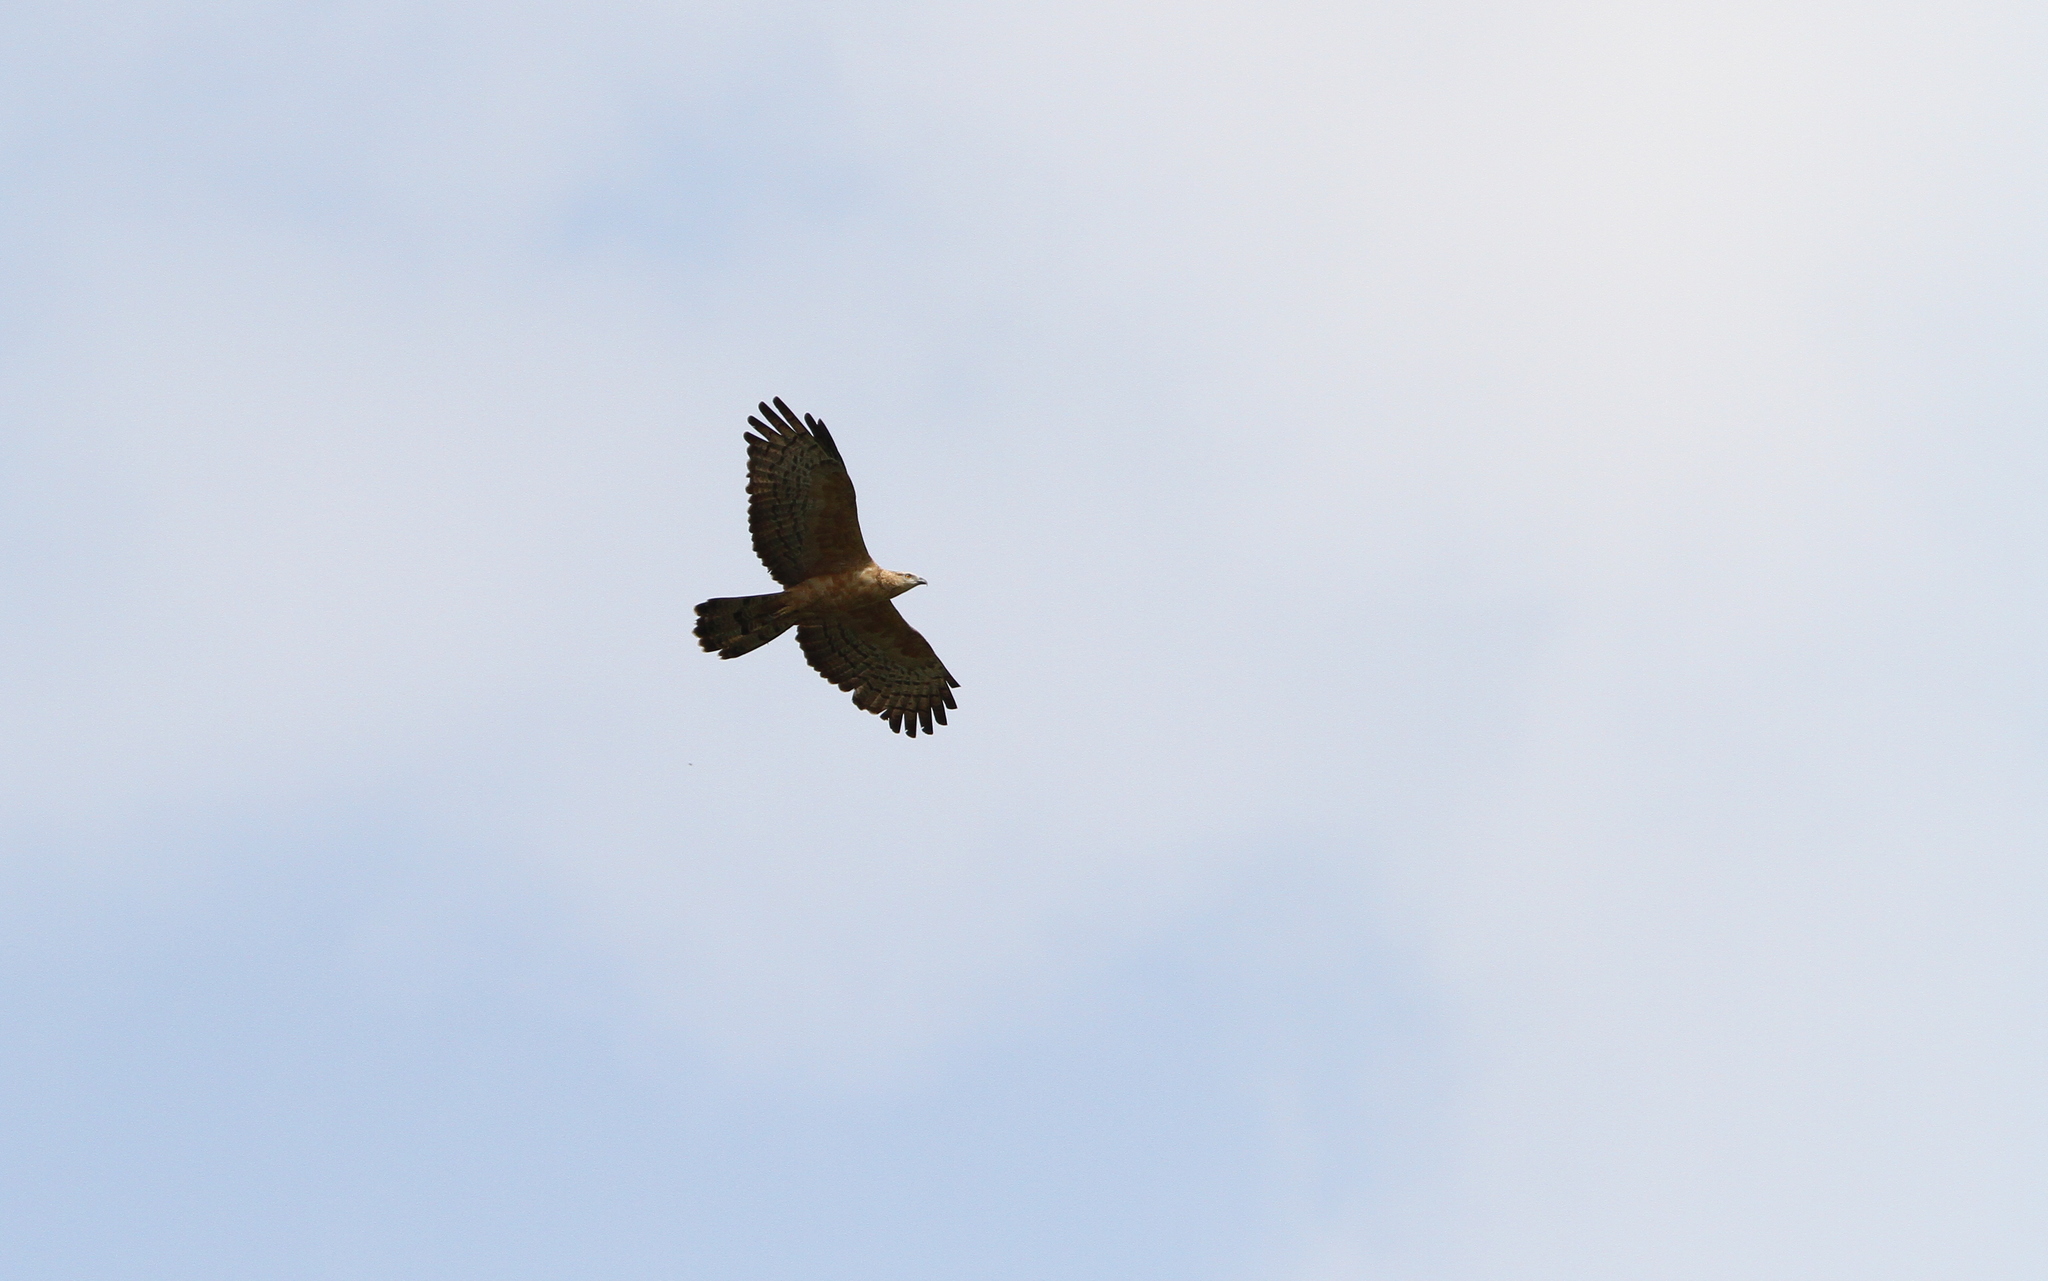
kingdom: Animalia
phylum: Chordata
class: Aves
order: Accipitriformes
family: Accipitridae
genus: Pernis
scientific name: Pernis ptilorhynchus
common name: Crested honey buzzard
